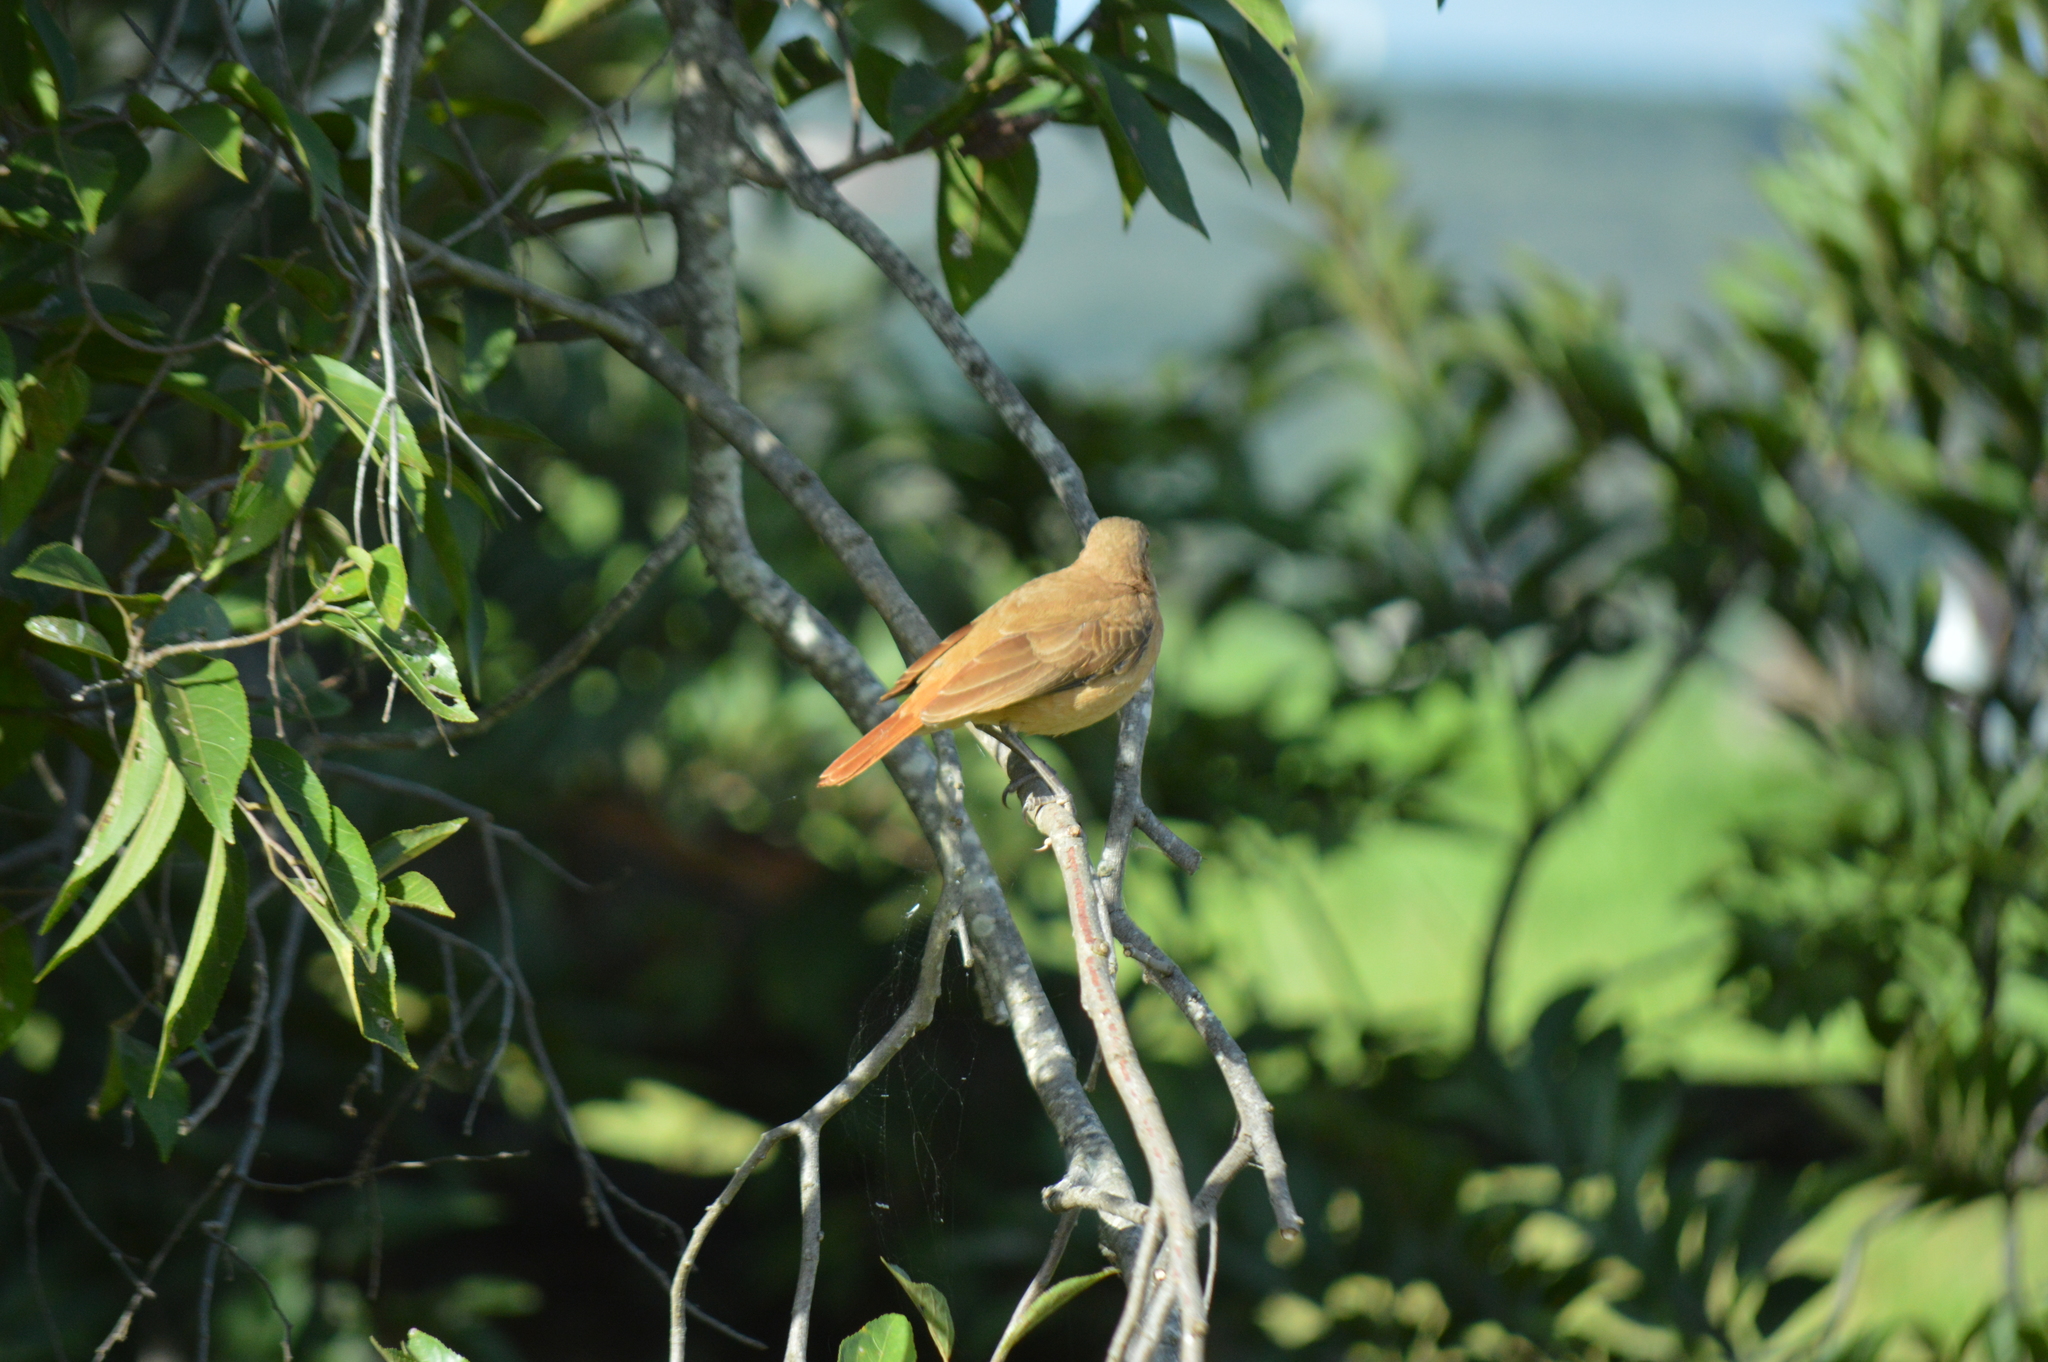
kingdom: Animalia
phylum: Chordata
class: Aves
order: Passeriformes
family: Furnariidae
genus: Furnarius
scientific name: Furnarius rufus
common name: Rufous hornero
